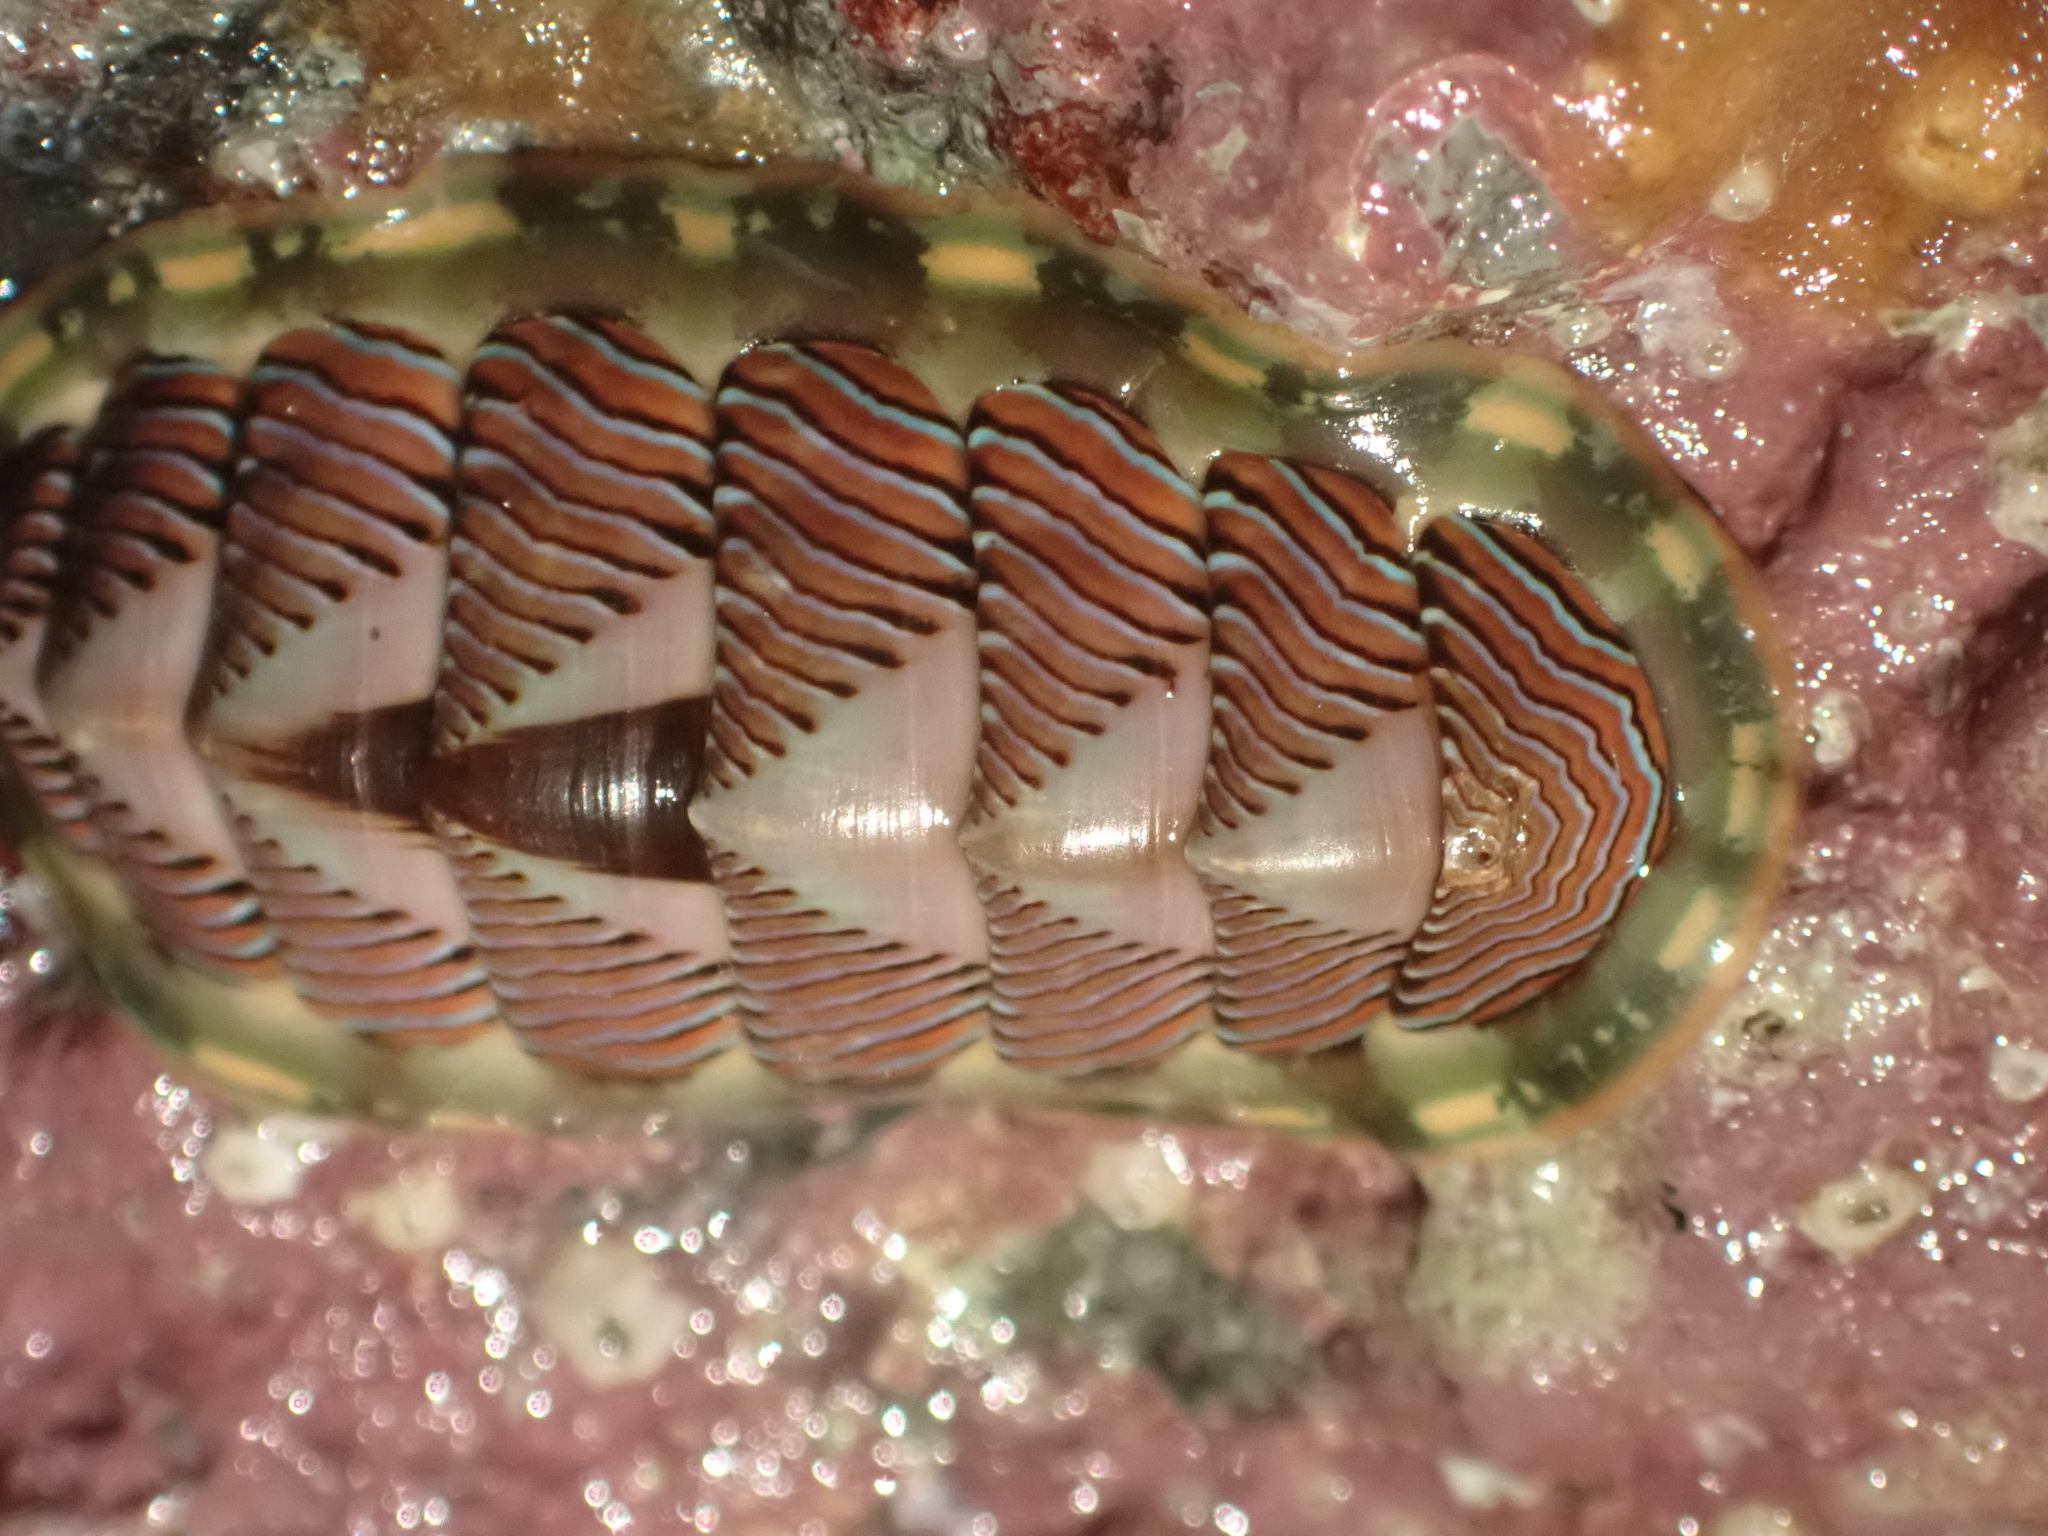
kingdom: Animalia
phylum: Mollusca
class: Polyplacophora
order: Chitonida
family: Tonicellidae
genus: Tonicella
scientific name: Tonicella lineata
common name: Lined chiton
